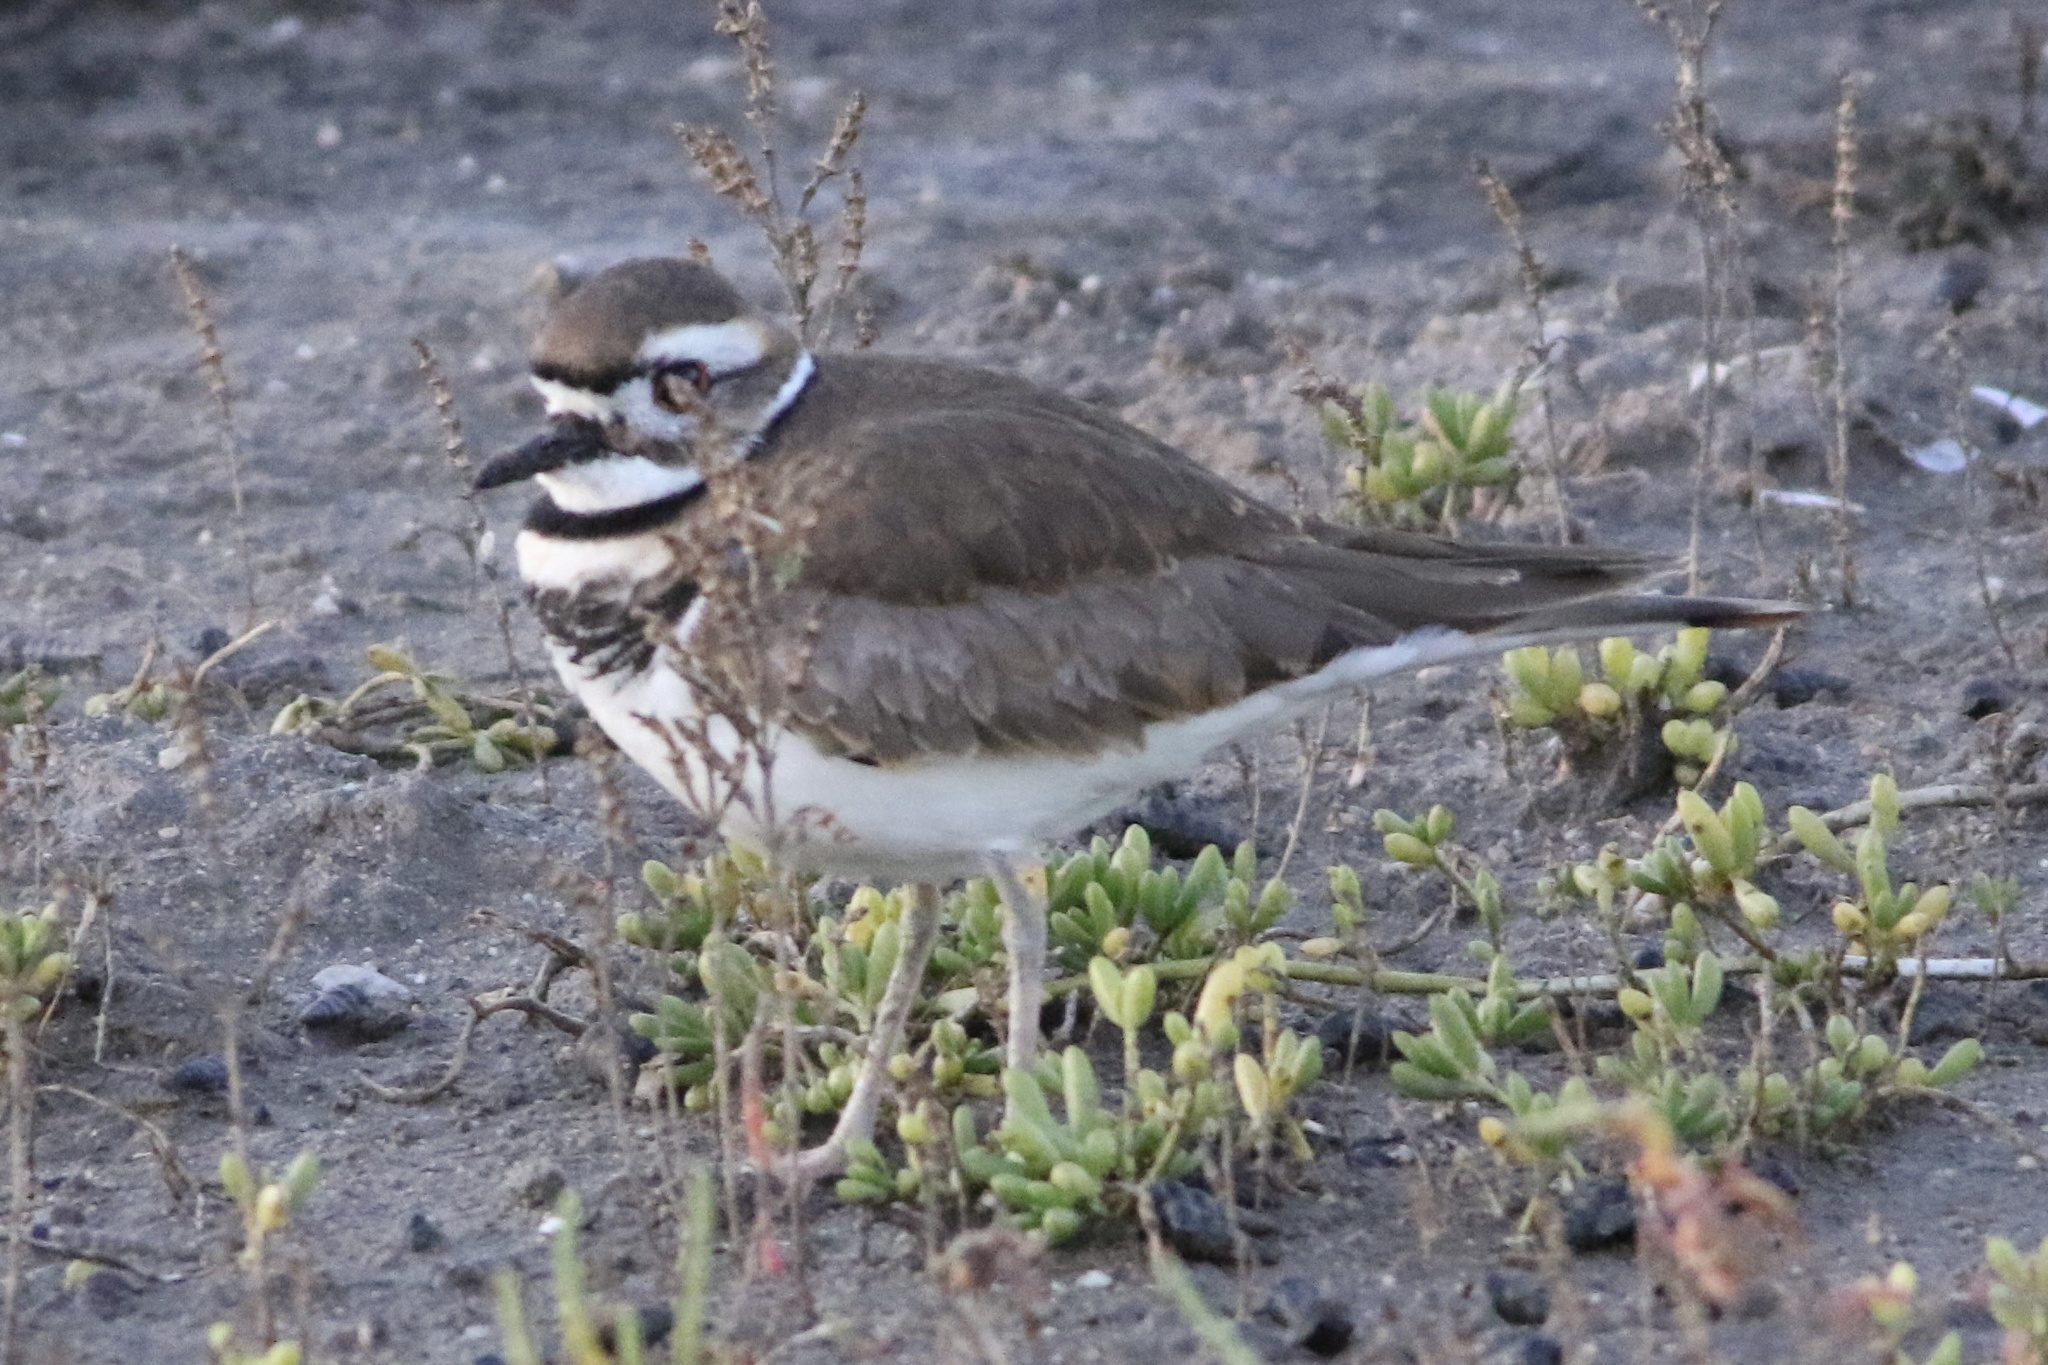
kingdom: Animalia
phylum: Chordata
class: Aves
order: Charadriiformes
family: Charadriidae
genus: Charadrius
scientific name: Charadrius vociferus
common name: Killdeer
